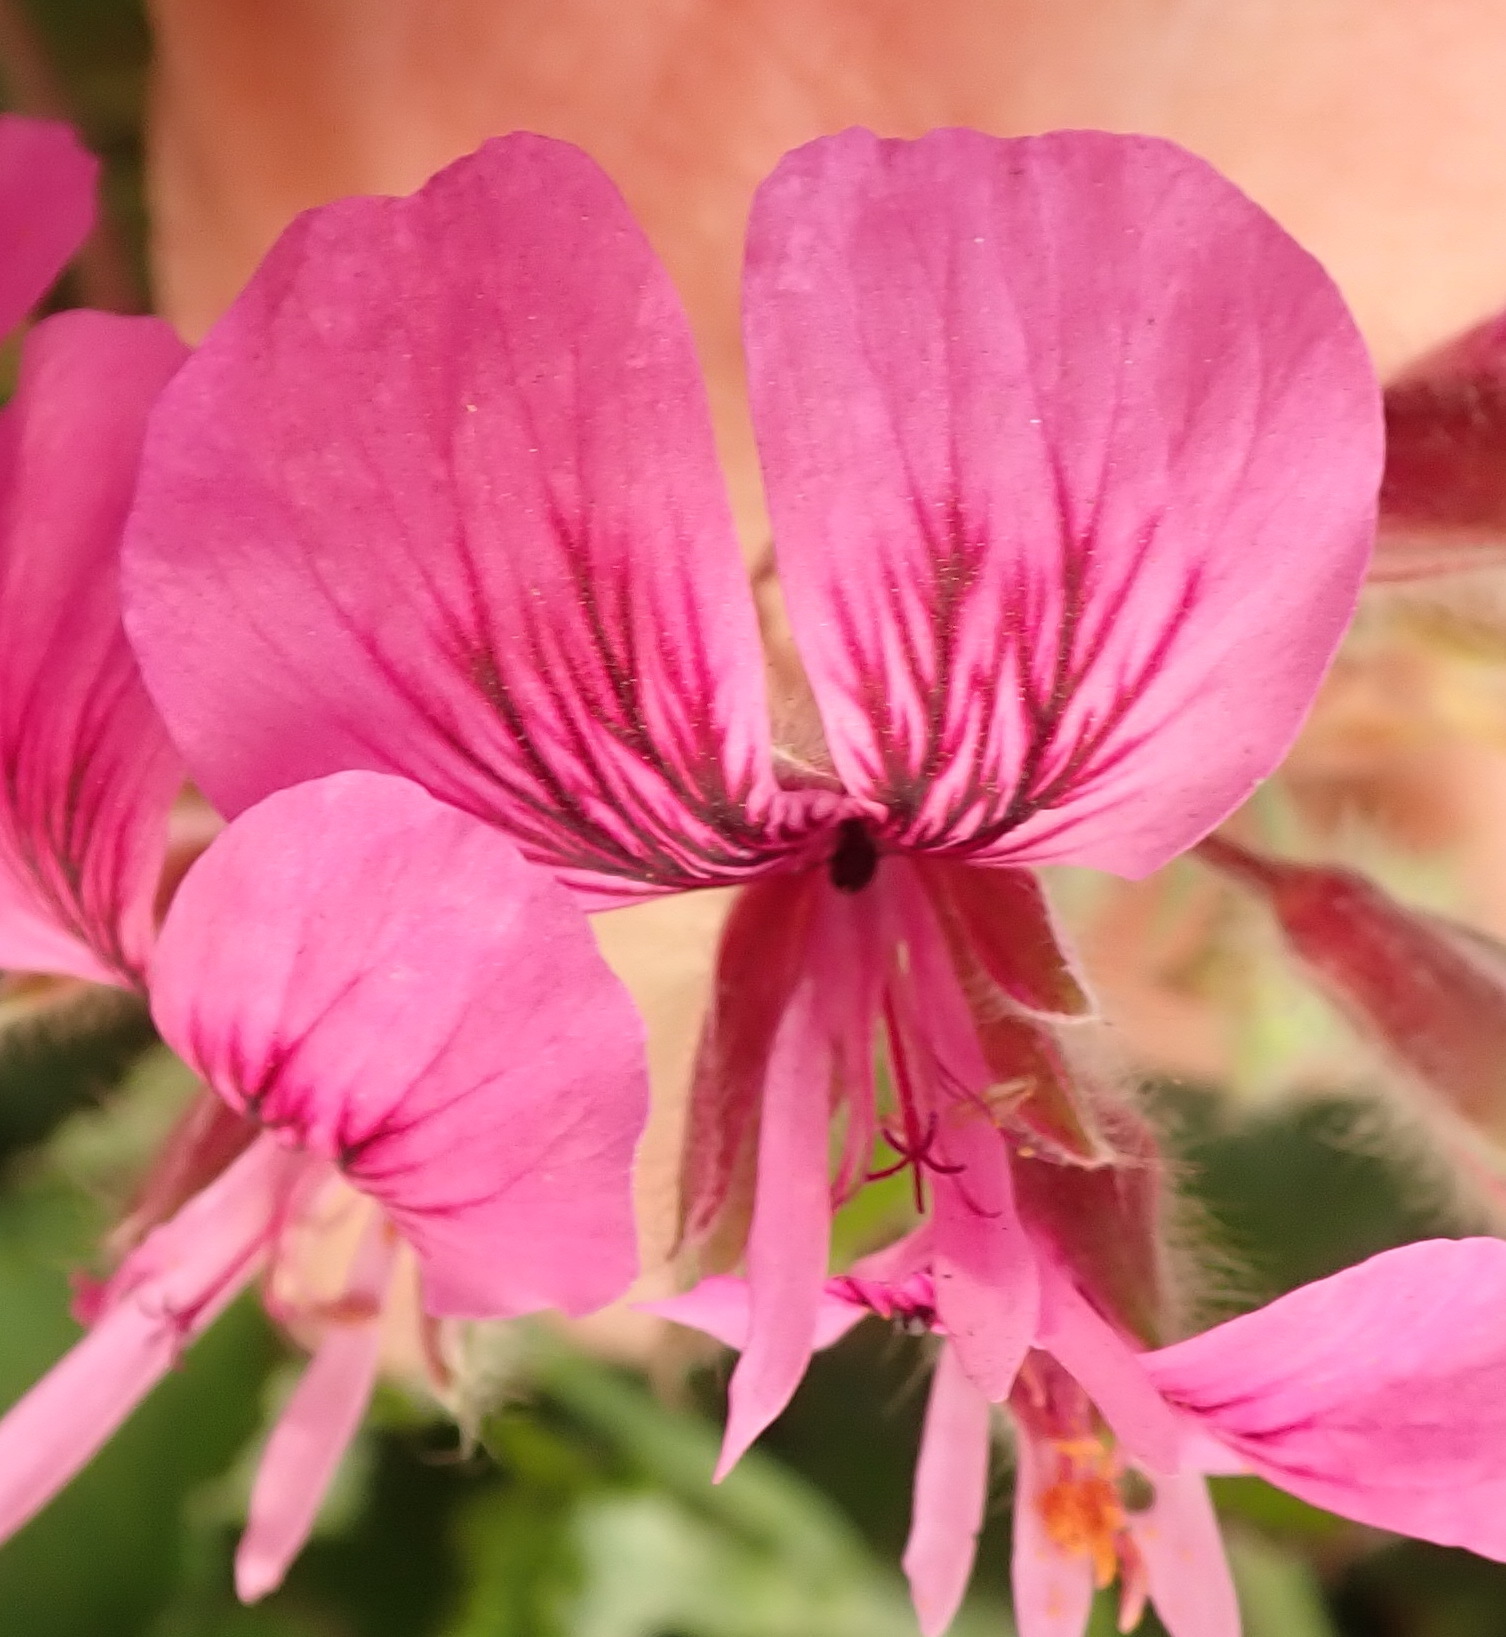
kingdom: Plantae
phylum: Tracheophyta
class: Magnoliopsida
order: Geraniales
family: Geraniaceae
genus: Pelargonium
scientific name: Pelargonium cordifolium
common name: Heart-leaf pelargonium
